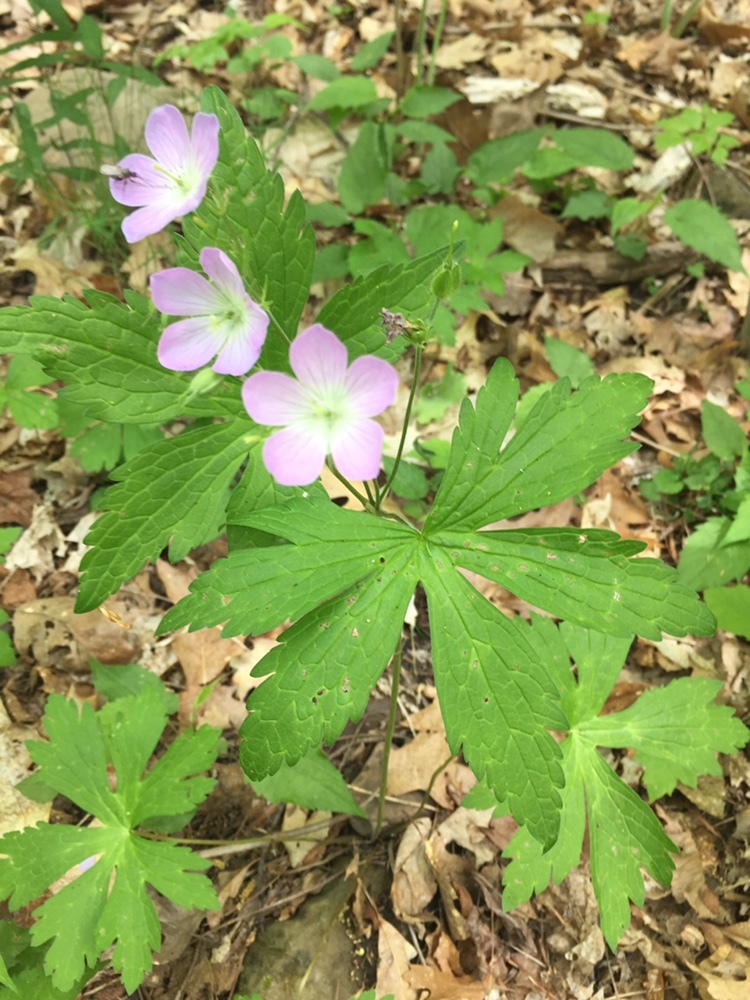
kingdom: Plantae
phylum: Tracheophyta
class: Magnoliopsida
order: Geraniales
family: Geraniaceae
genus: Geranium
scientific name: Geranium maculatum
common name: Spotted geranium
